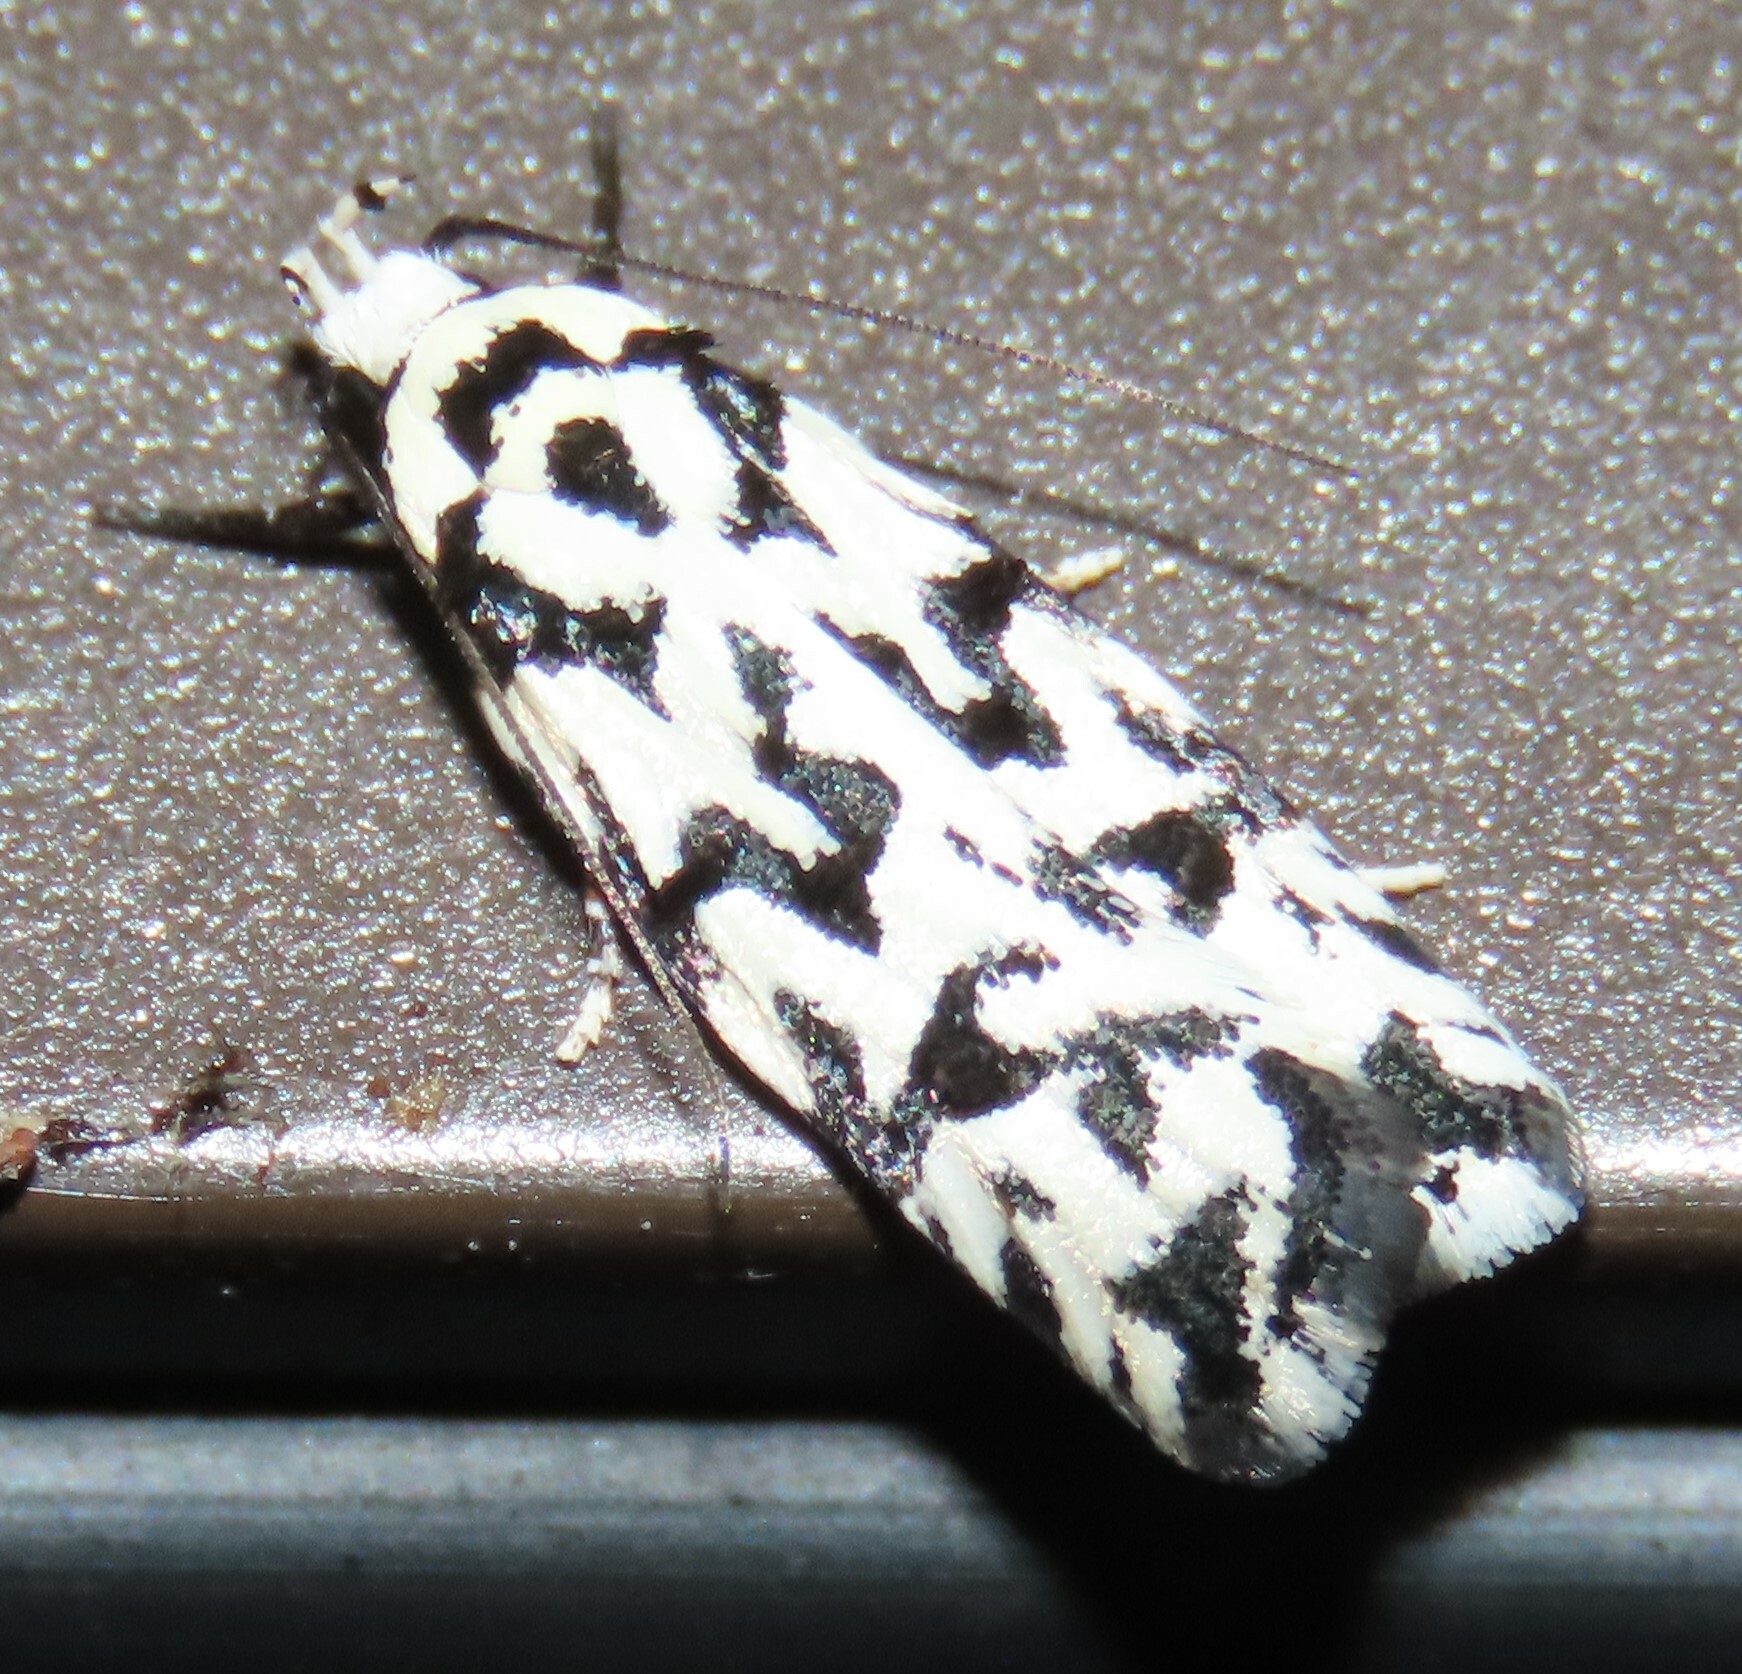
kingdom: Animalia
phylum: Arthropoda
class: Insecta
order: Lepidoptera
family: Oecophoridae
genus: Izatha
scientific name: Izatha
